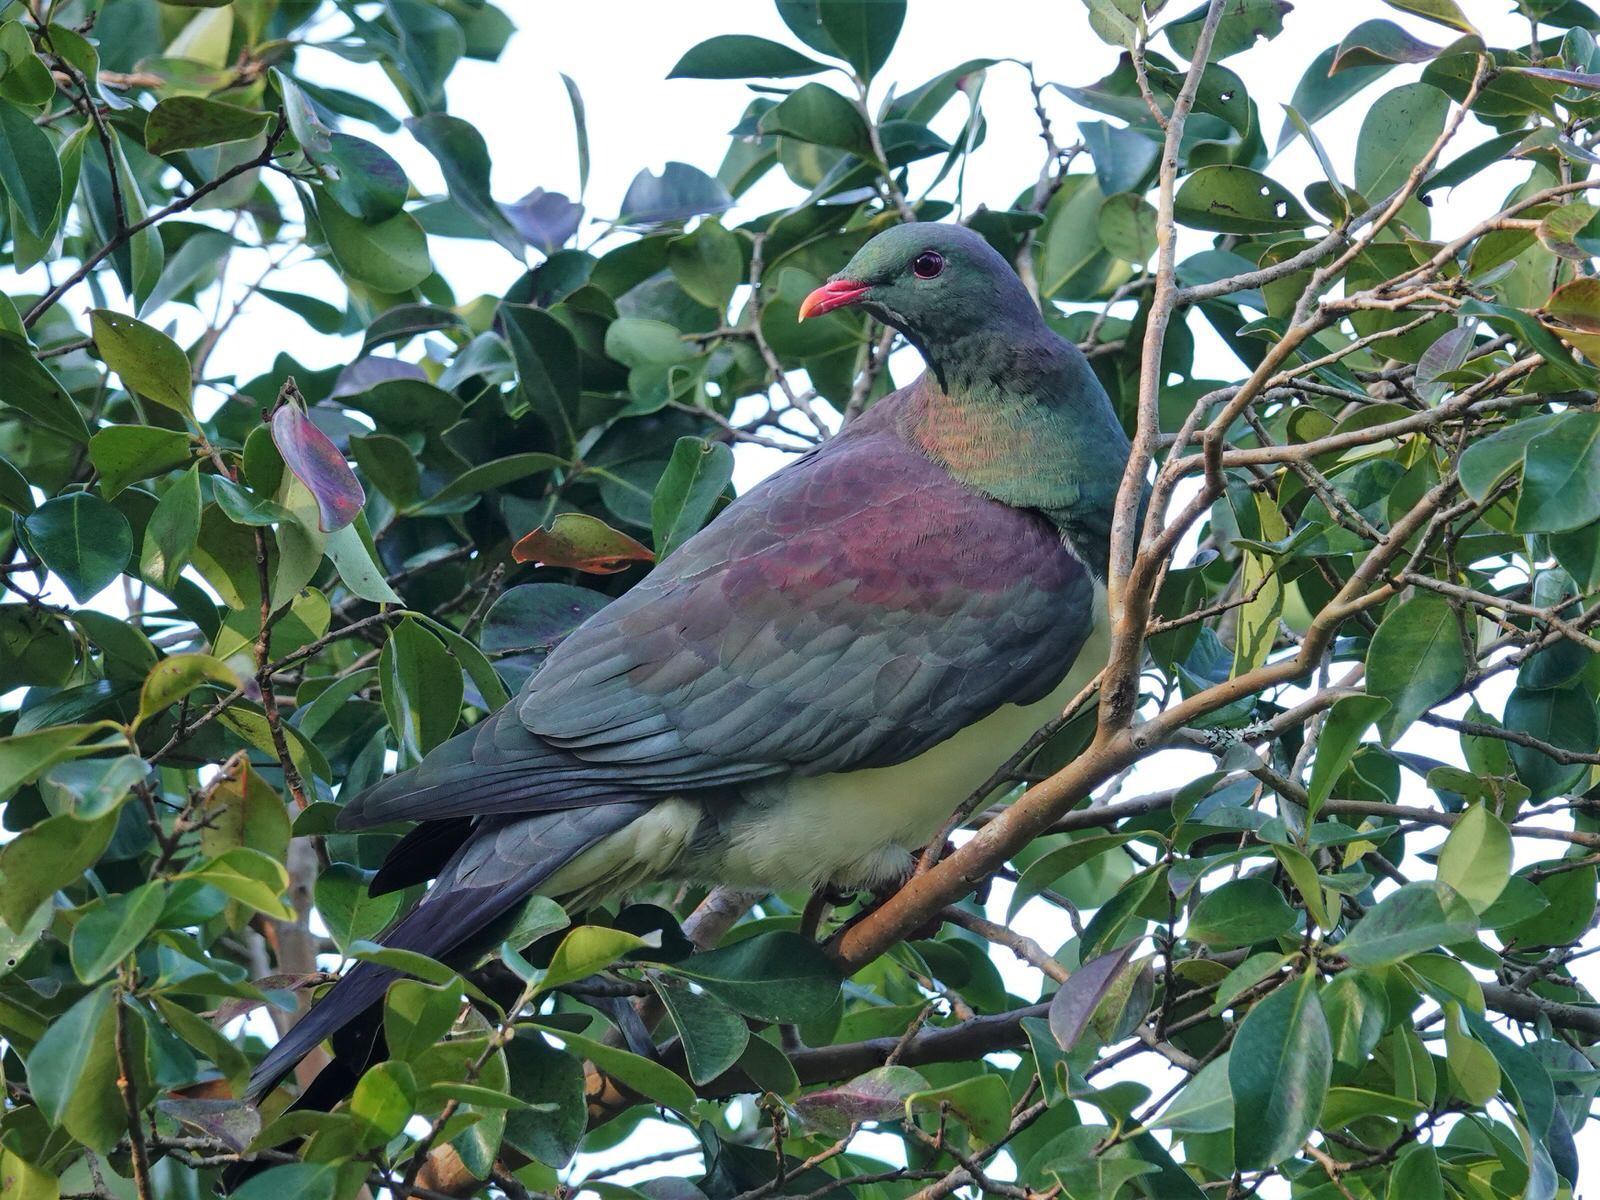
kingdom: Animalia
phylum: Chordata
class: Aves
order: Columbiformes
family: Columbidae
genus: Hemiphaga
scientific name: Hemiphaga novaeseelandiae
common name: New zealand pigeon
